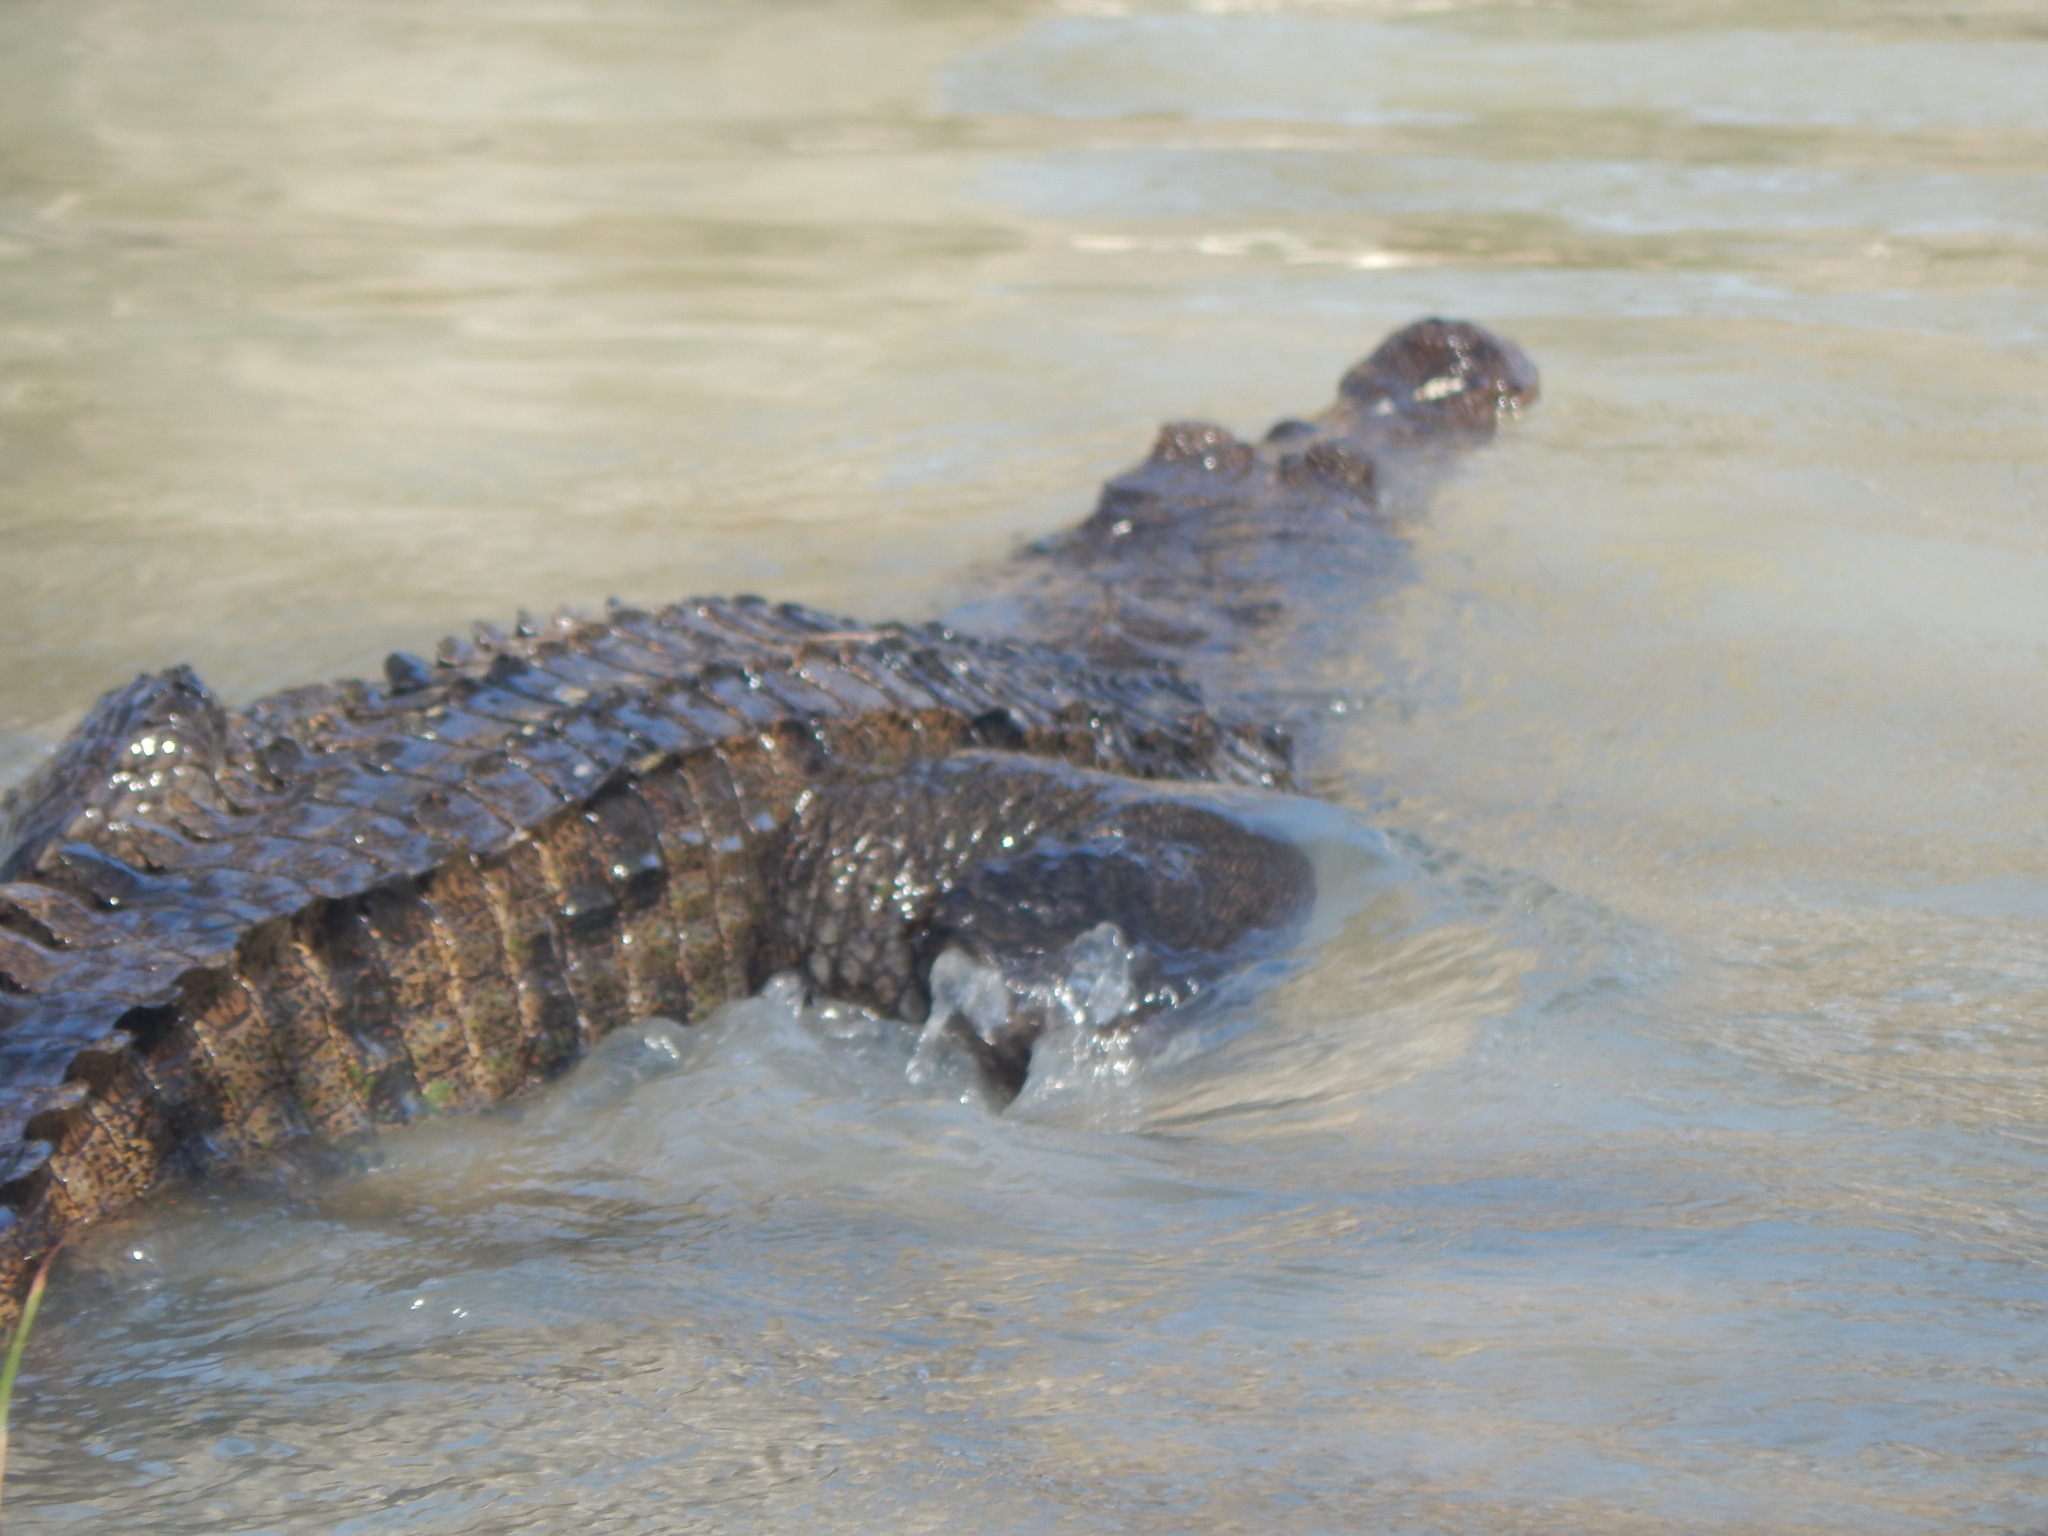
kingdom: Animalia
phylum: Chordata
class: Crocodylia
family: Crocodylidae
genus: Crocodylus
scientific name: Crocodylus niloticus
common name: Nile crocodile
